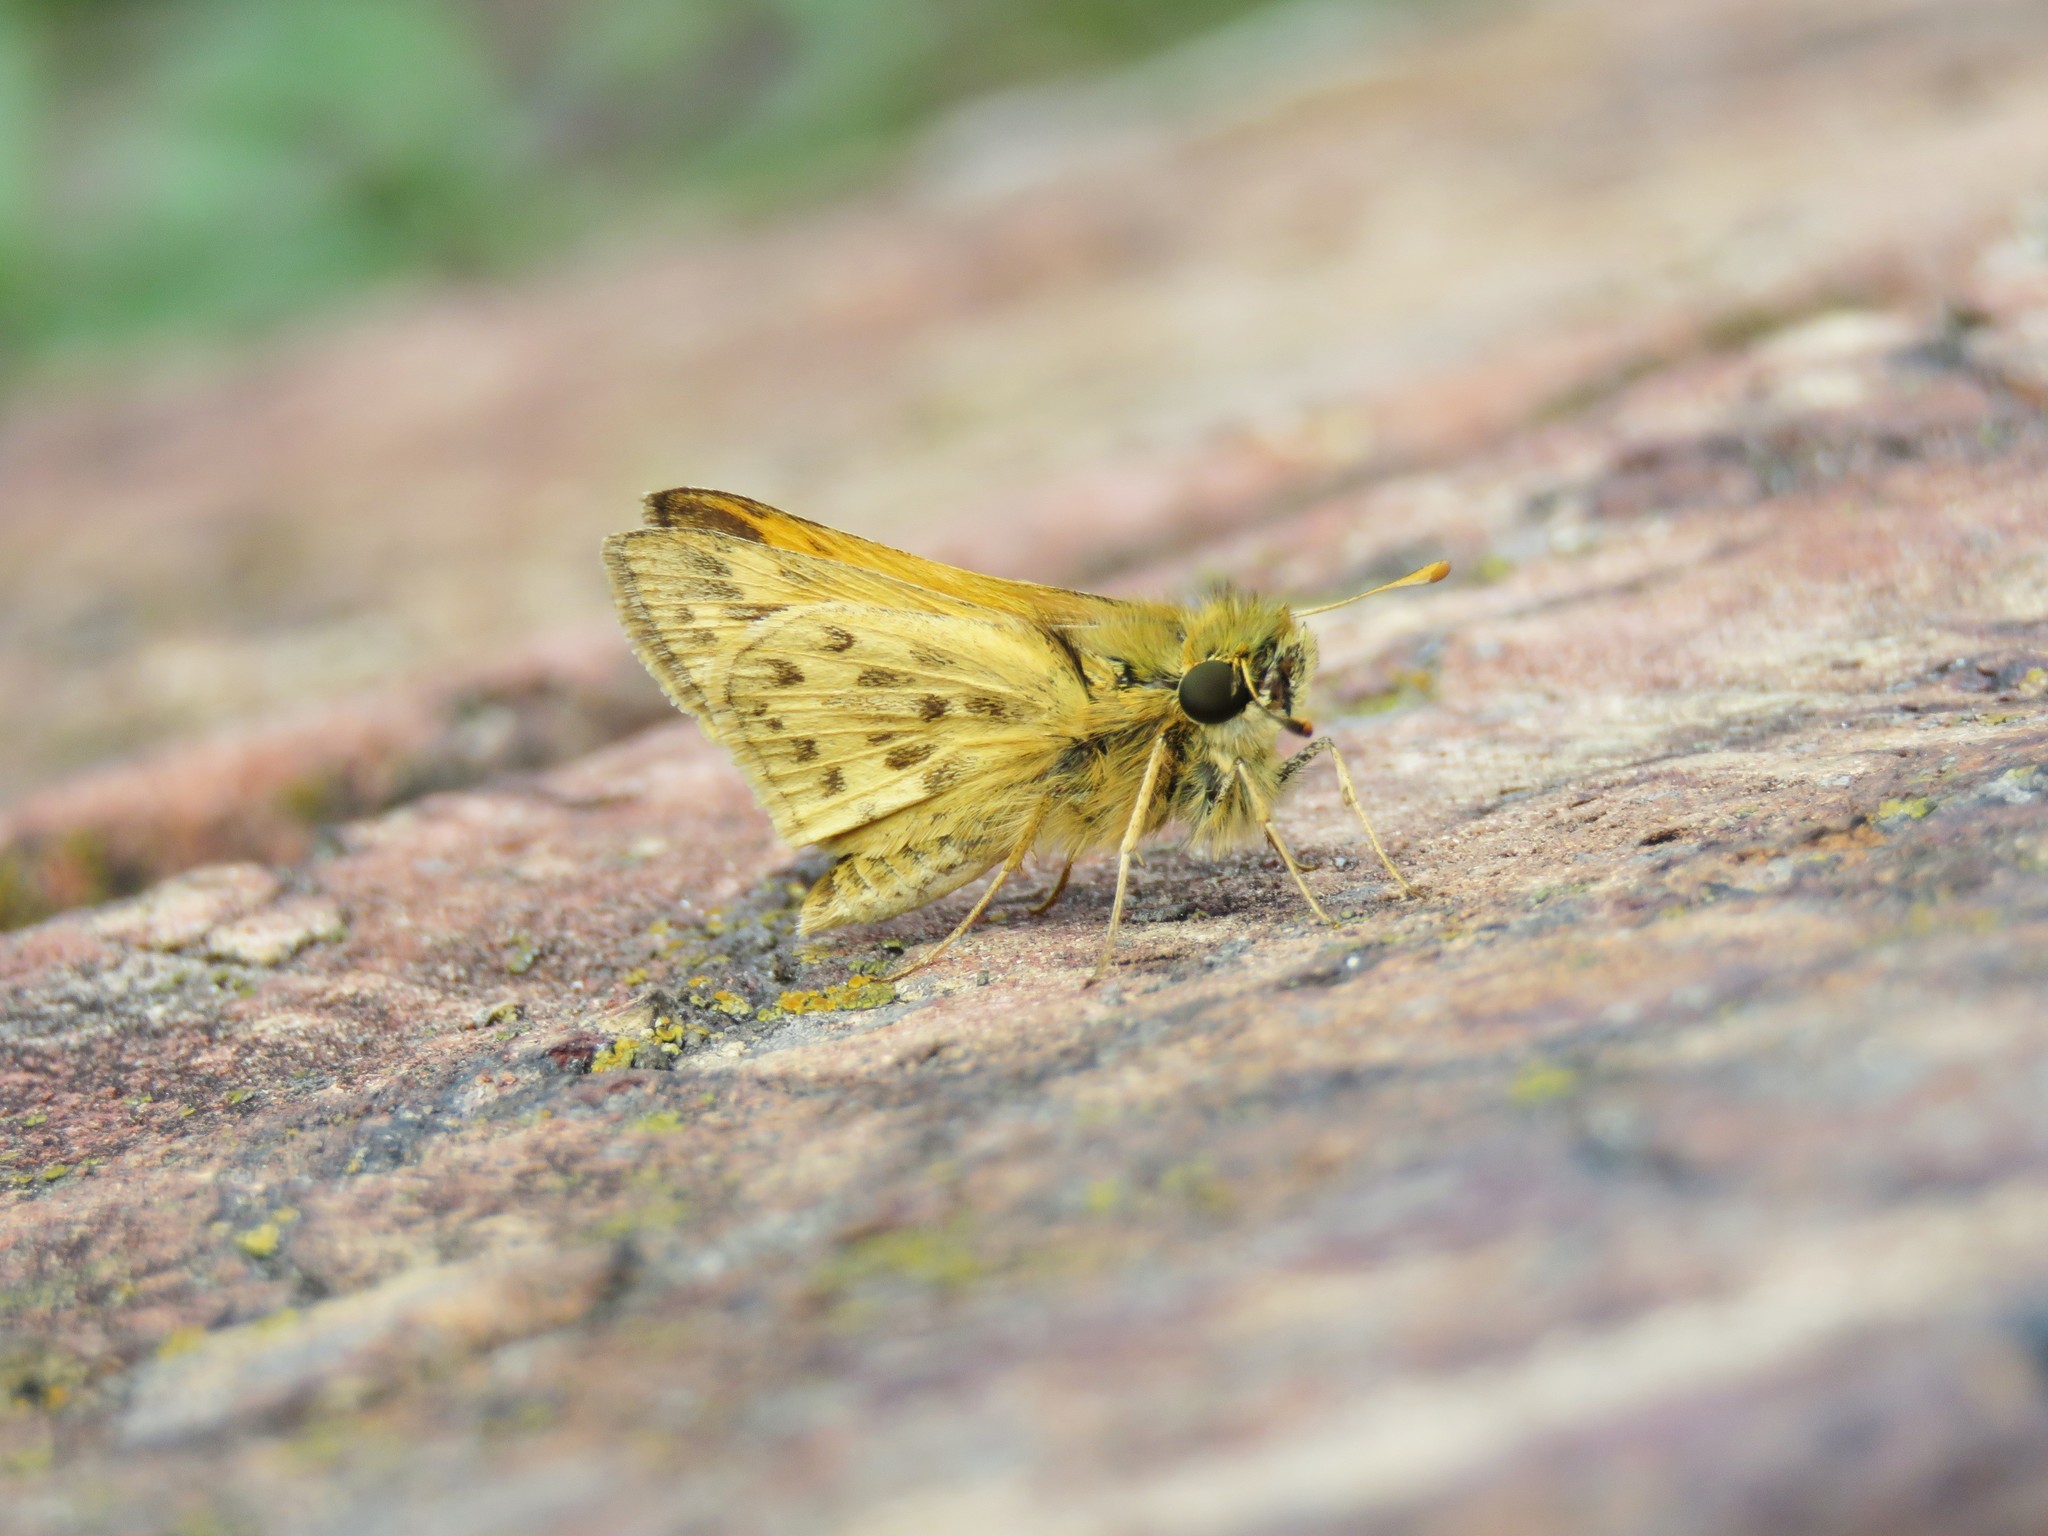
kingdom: Animalia
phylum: Arthropoda
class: Insecta
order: Lepidoptera
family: Hesperiidae
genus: Hylephila
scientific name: Hylephila phyleus
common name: Fiery skipper
